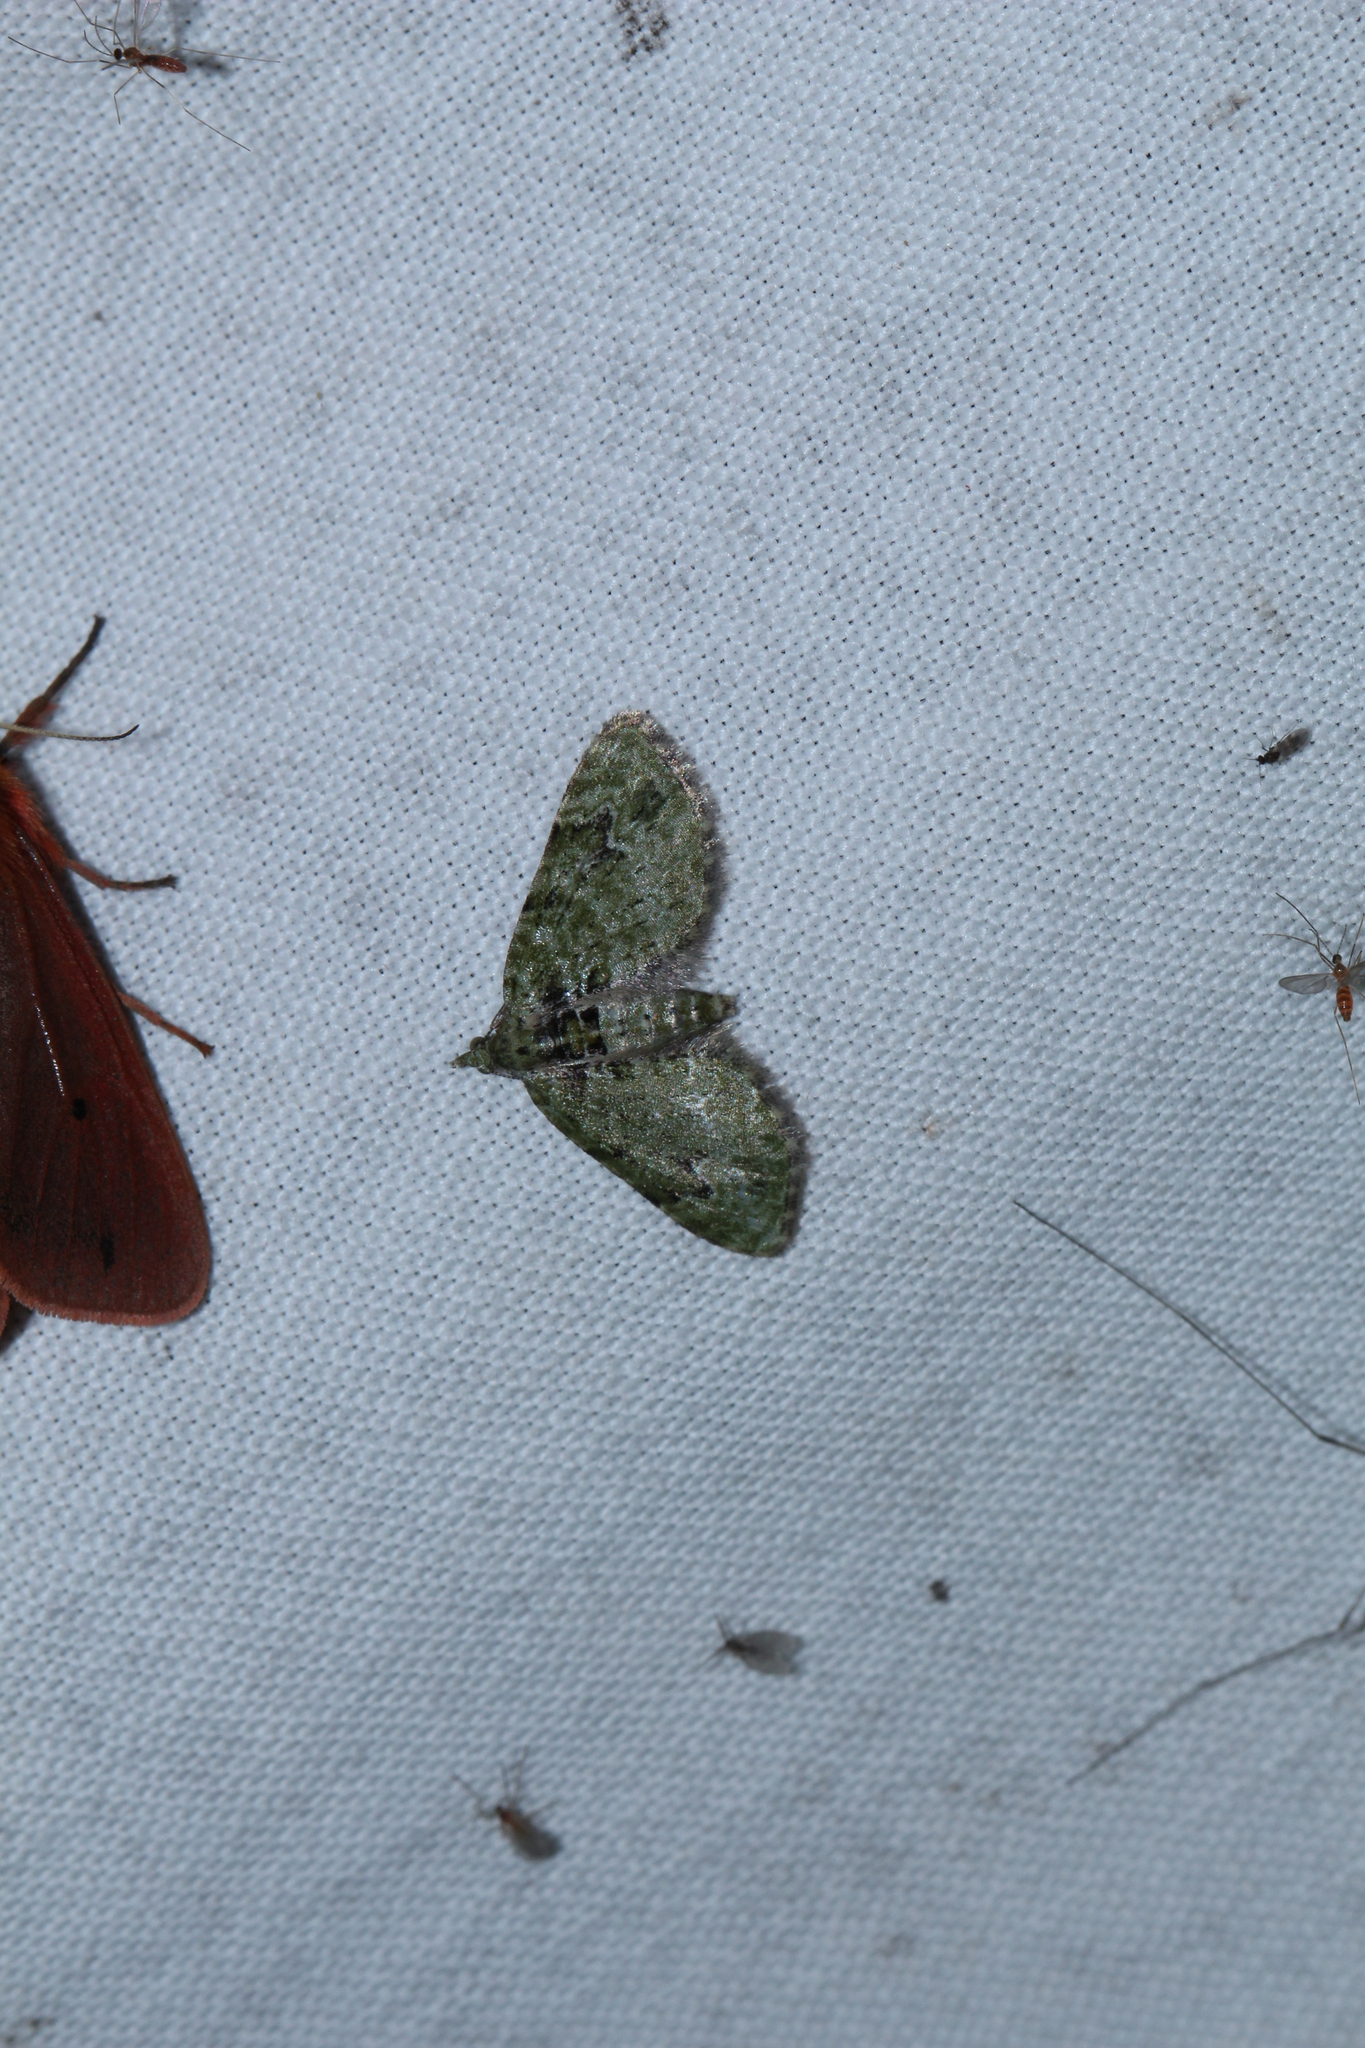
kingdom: Animalia
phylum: Arthropoda
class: Insecta
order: Lepidoptera
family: Geometridae
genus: Chloroclystis
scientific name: Chloroclystis v-ata
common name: V-pug
